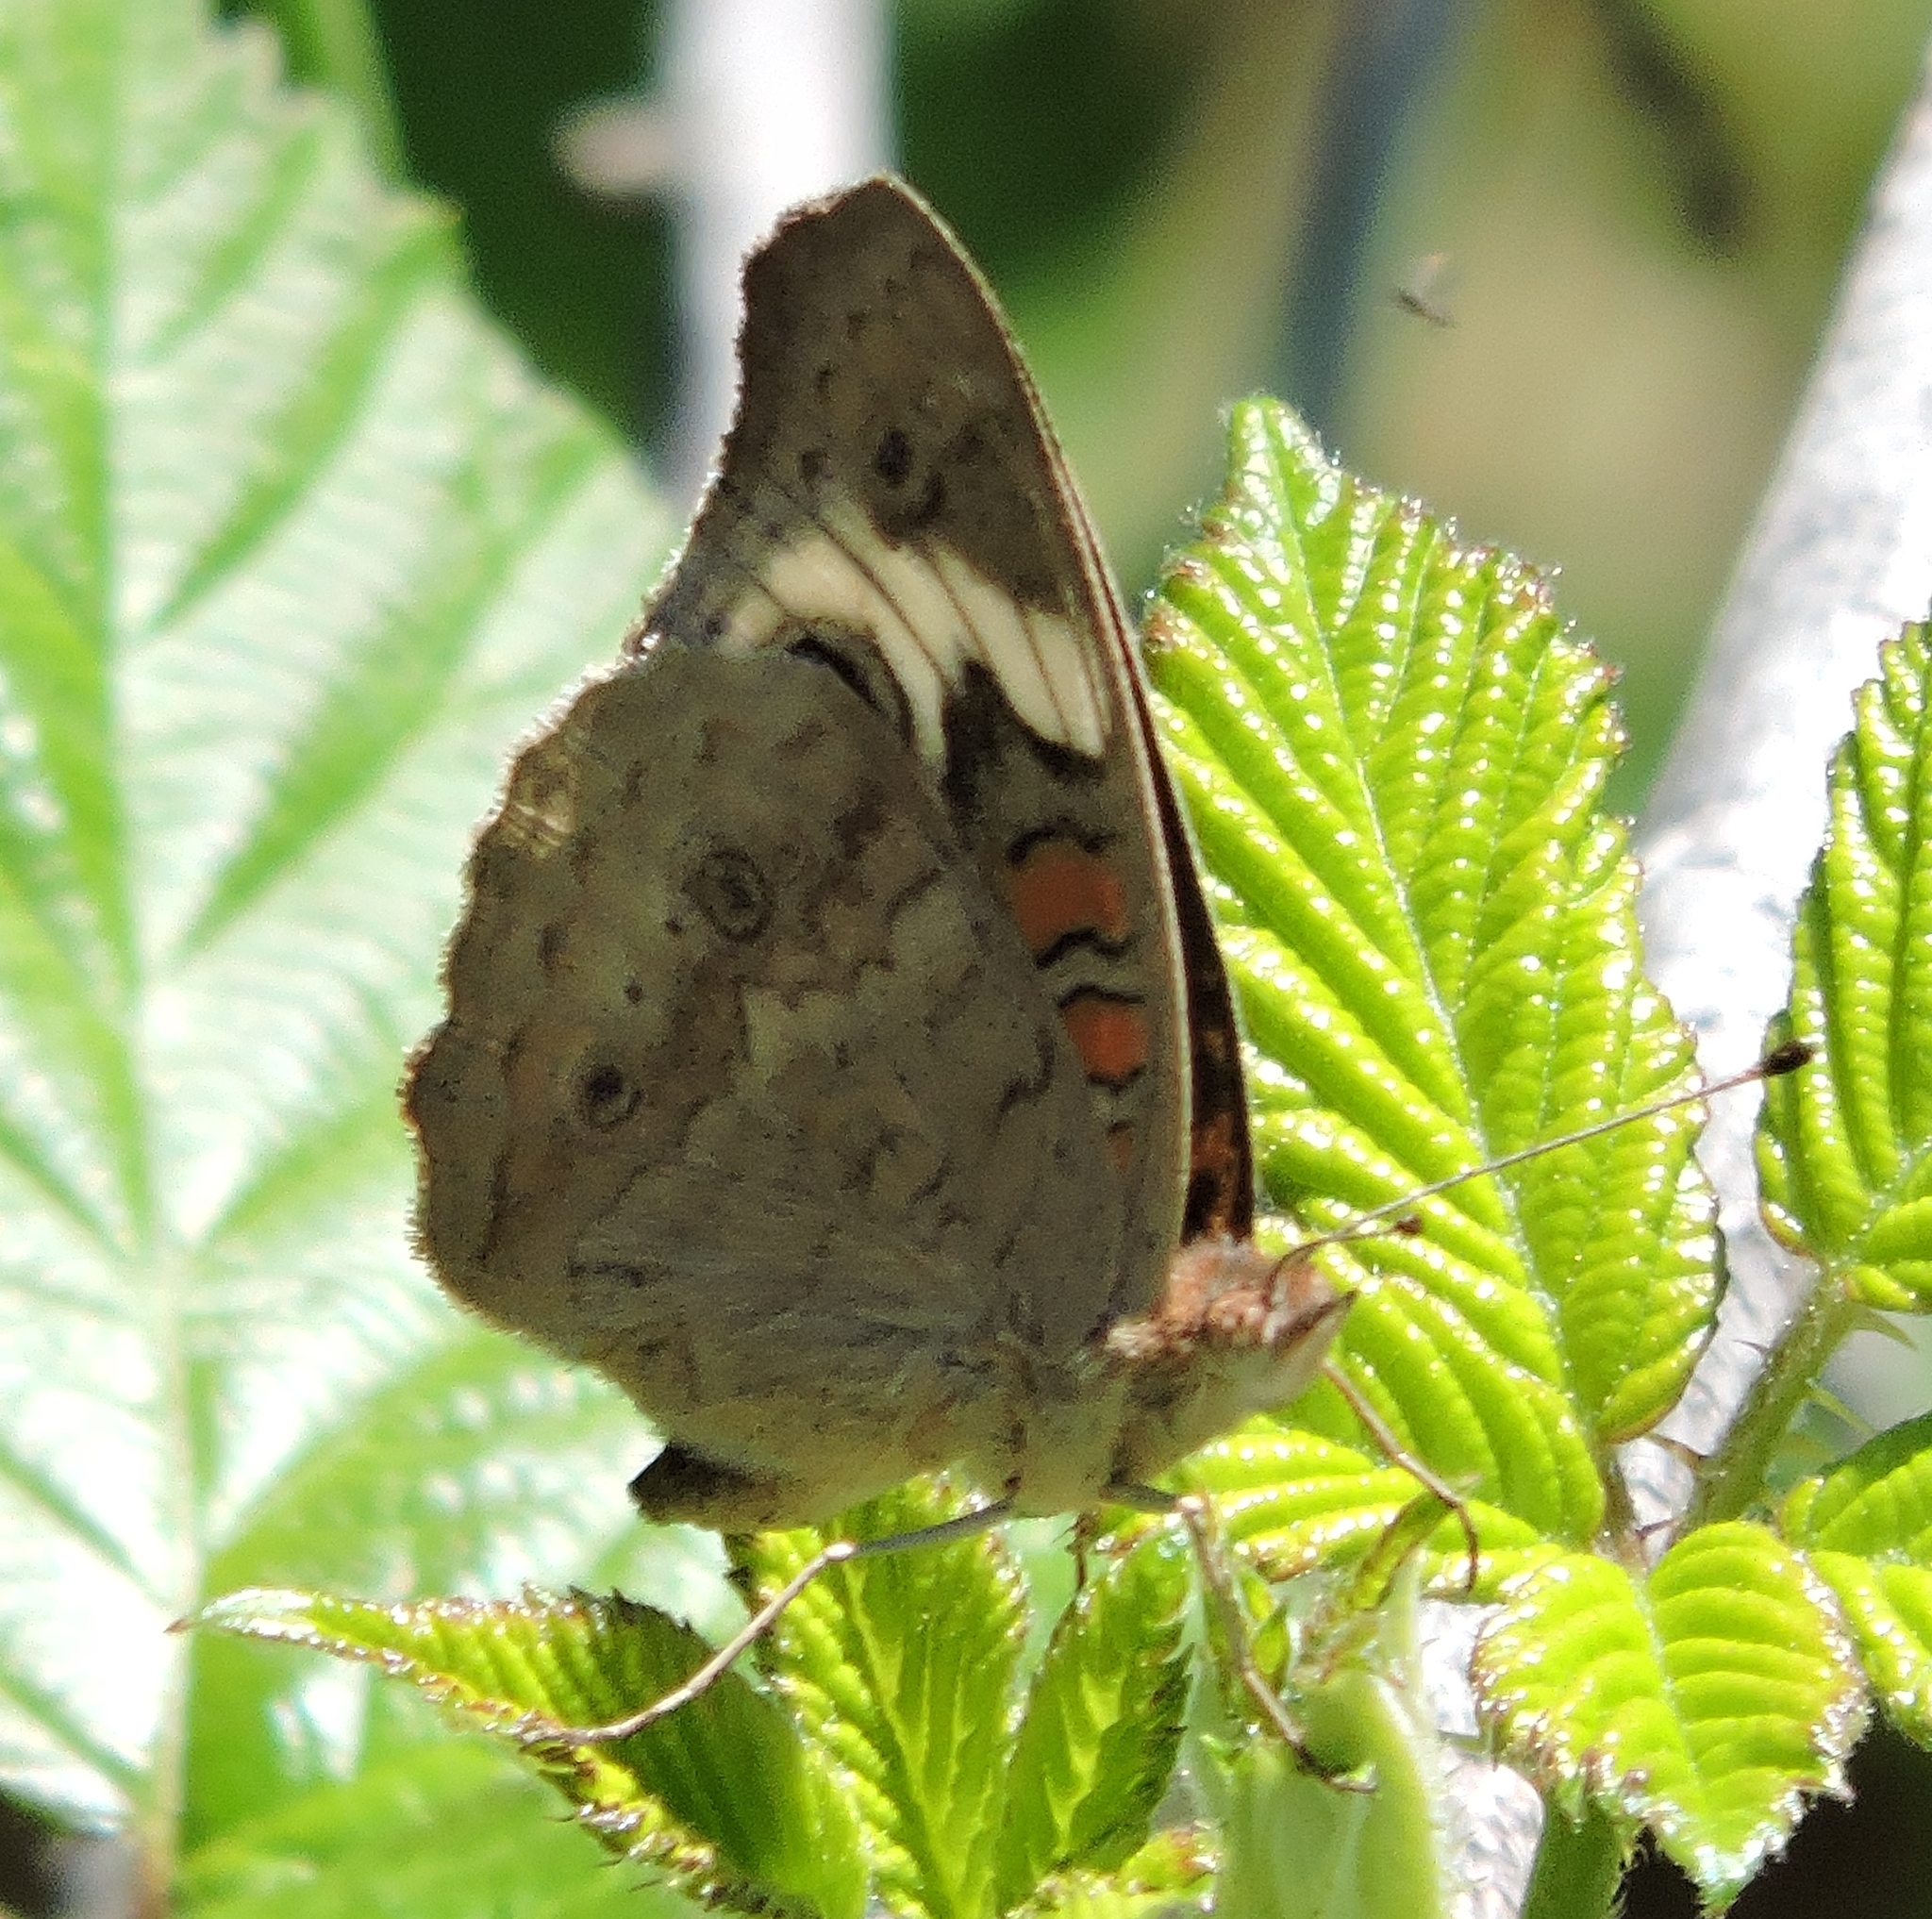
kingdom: Animalia
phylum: Arthropoda
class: Insecta
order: Lepidoptera
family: Nymphalidae
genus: Junonia
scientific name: Junonia grisea
